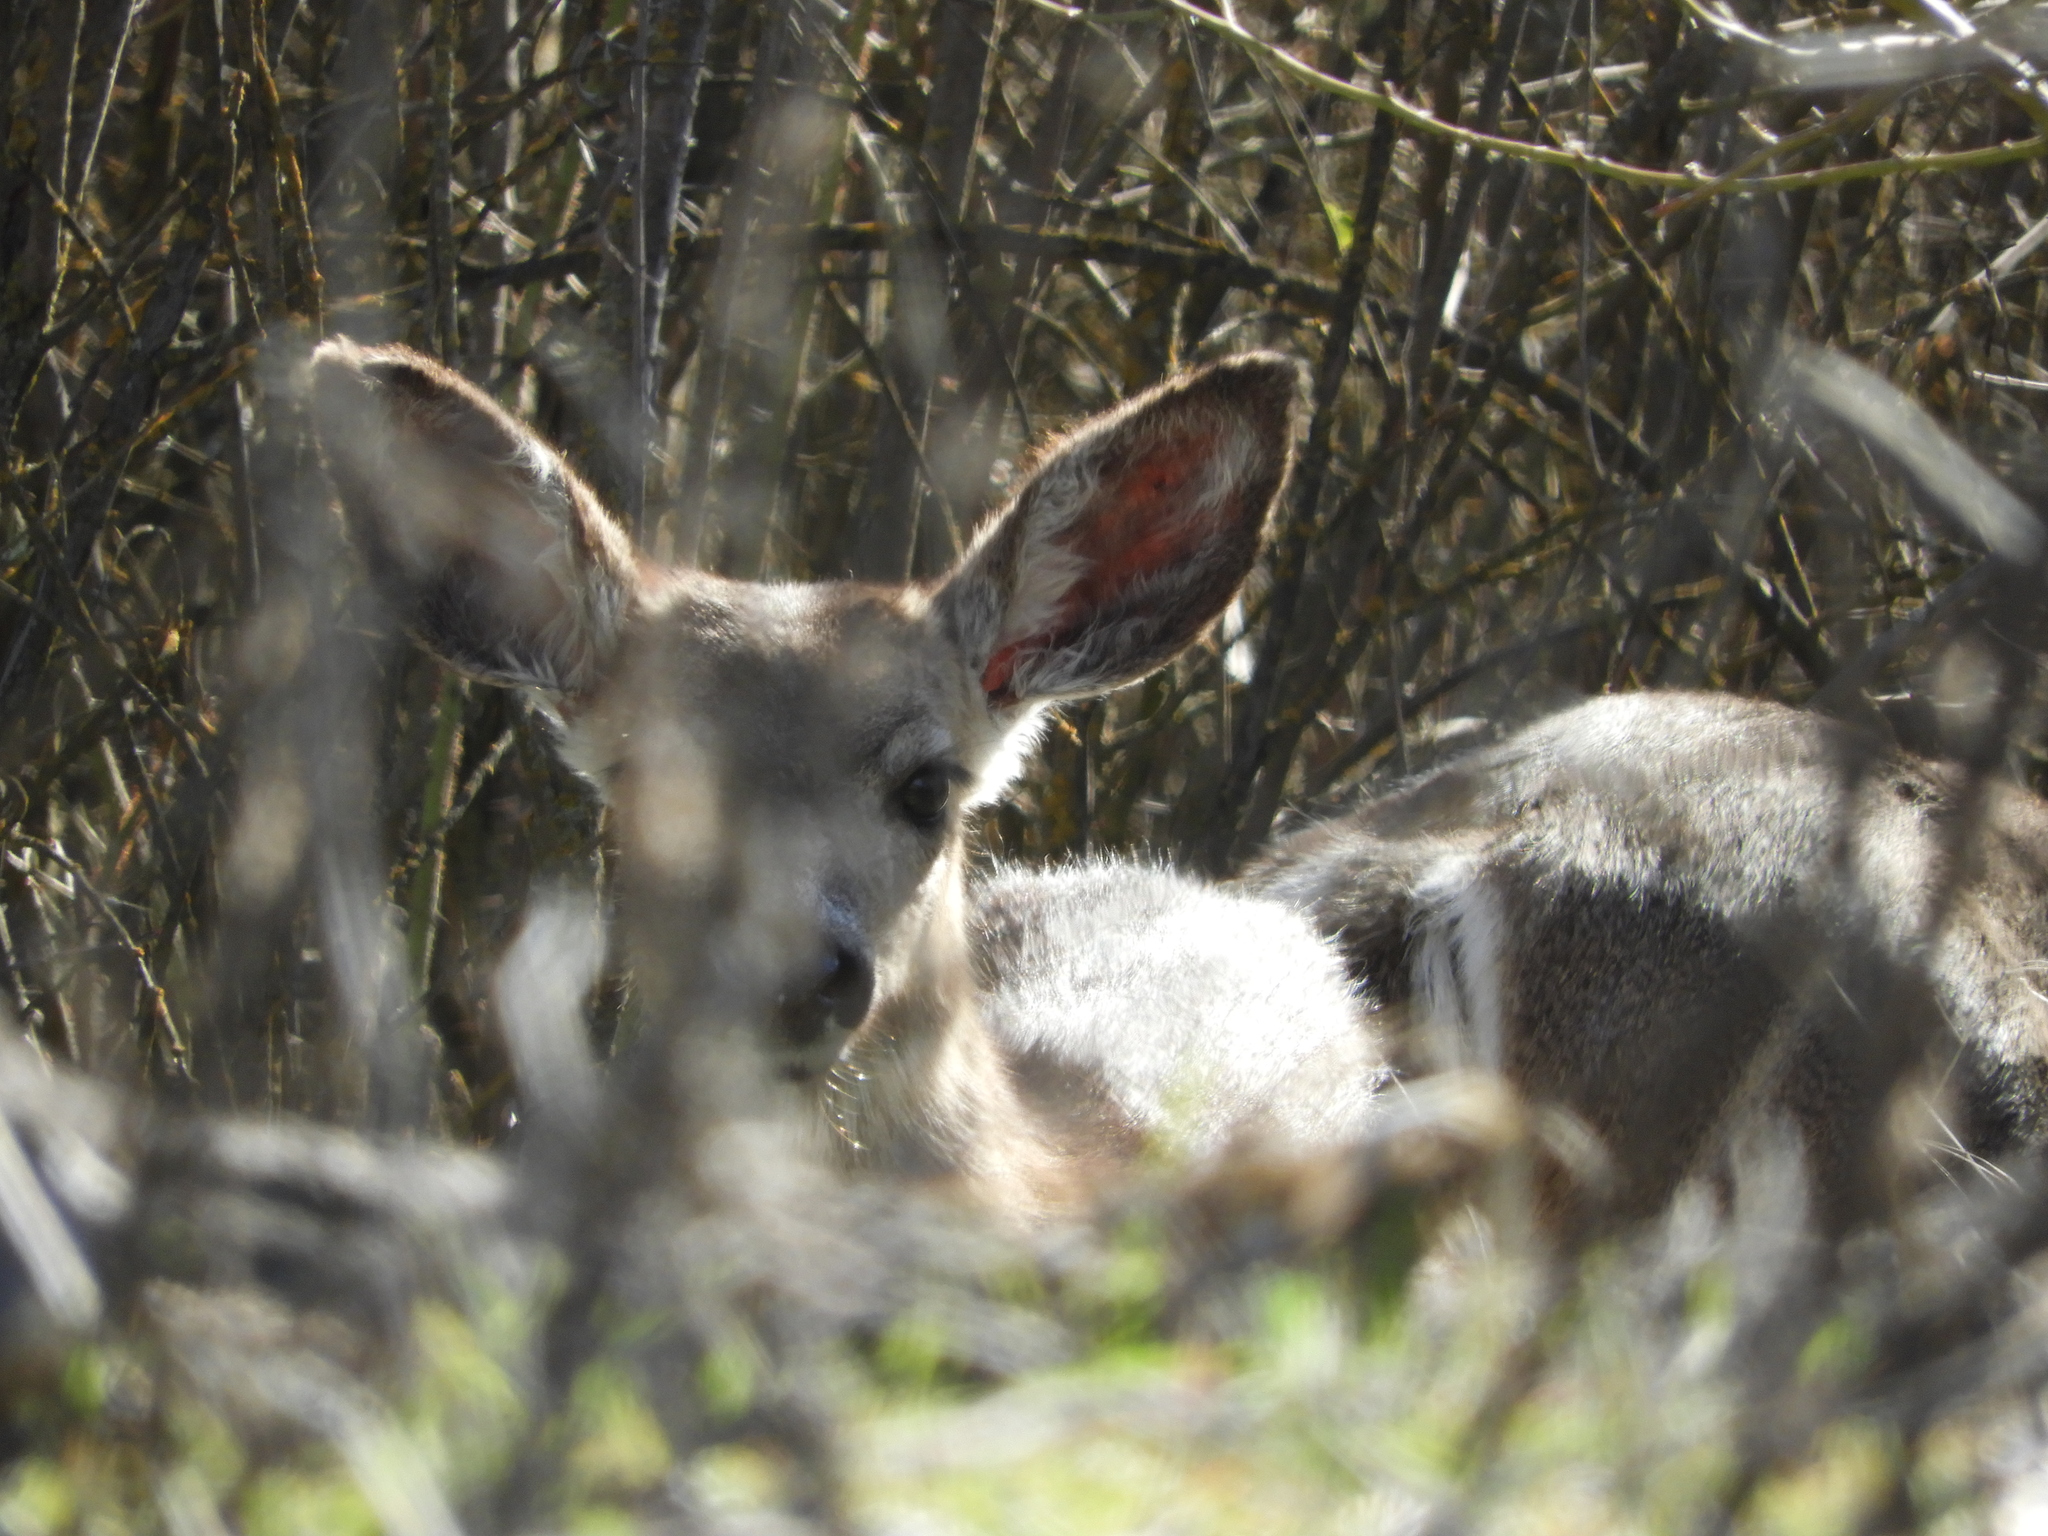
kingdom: Animalia
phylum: Chordata
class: Mammalia
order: Artiodactyla
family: Cervidae
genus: Odocoileus
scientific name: Odocoileus hemionus
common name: Mule deer
